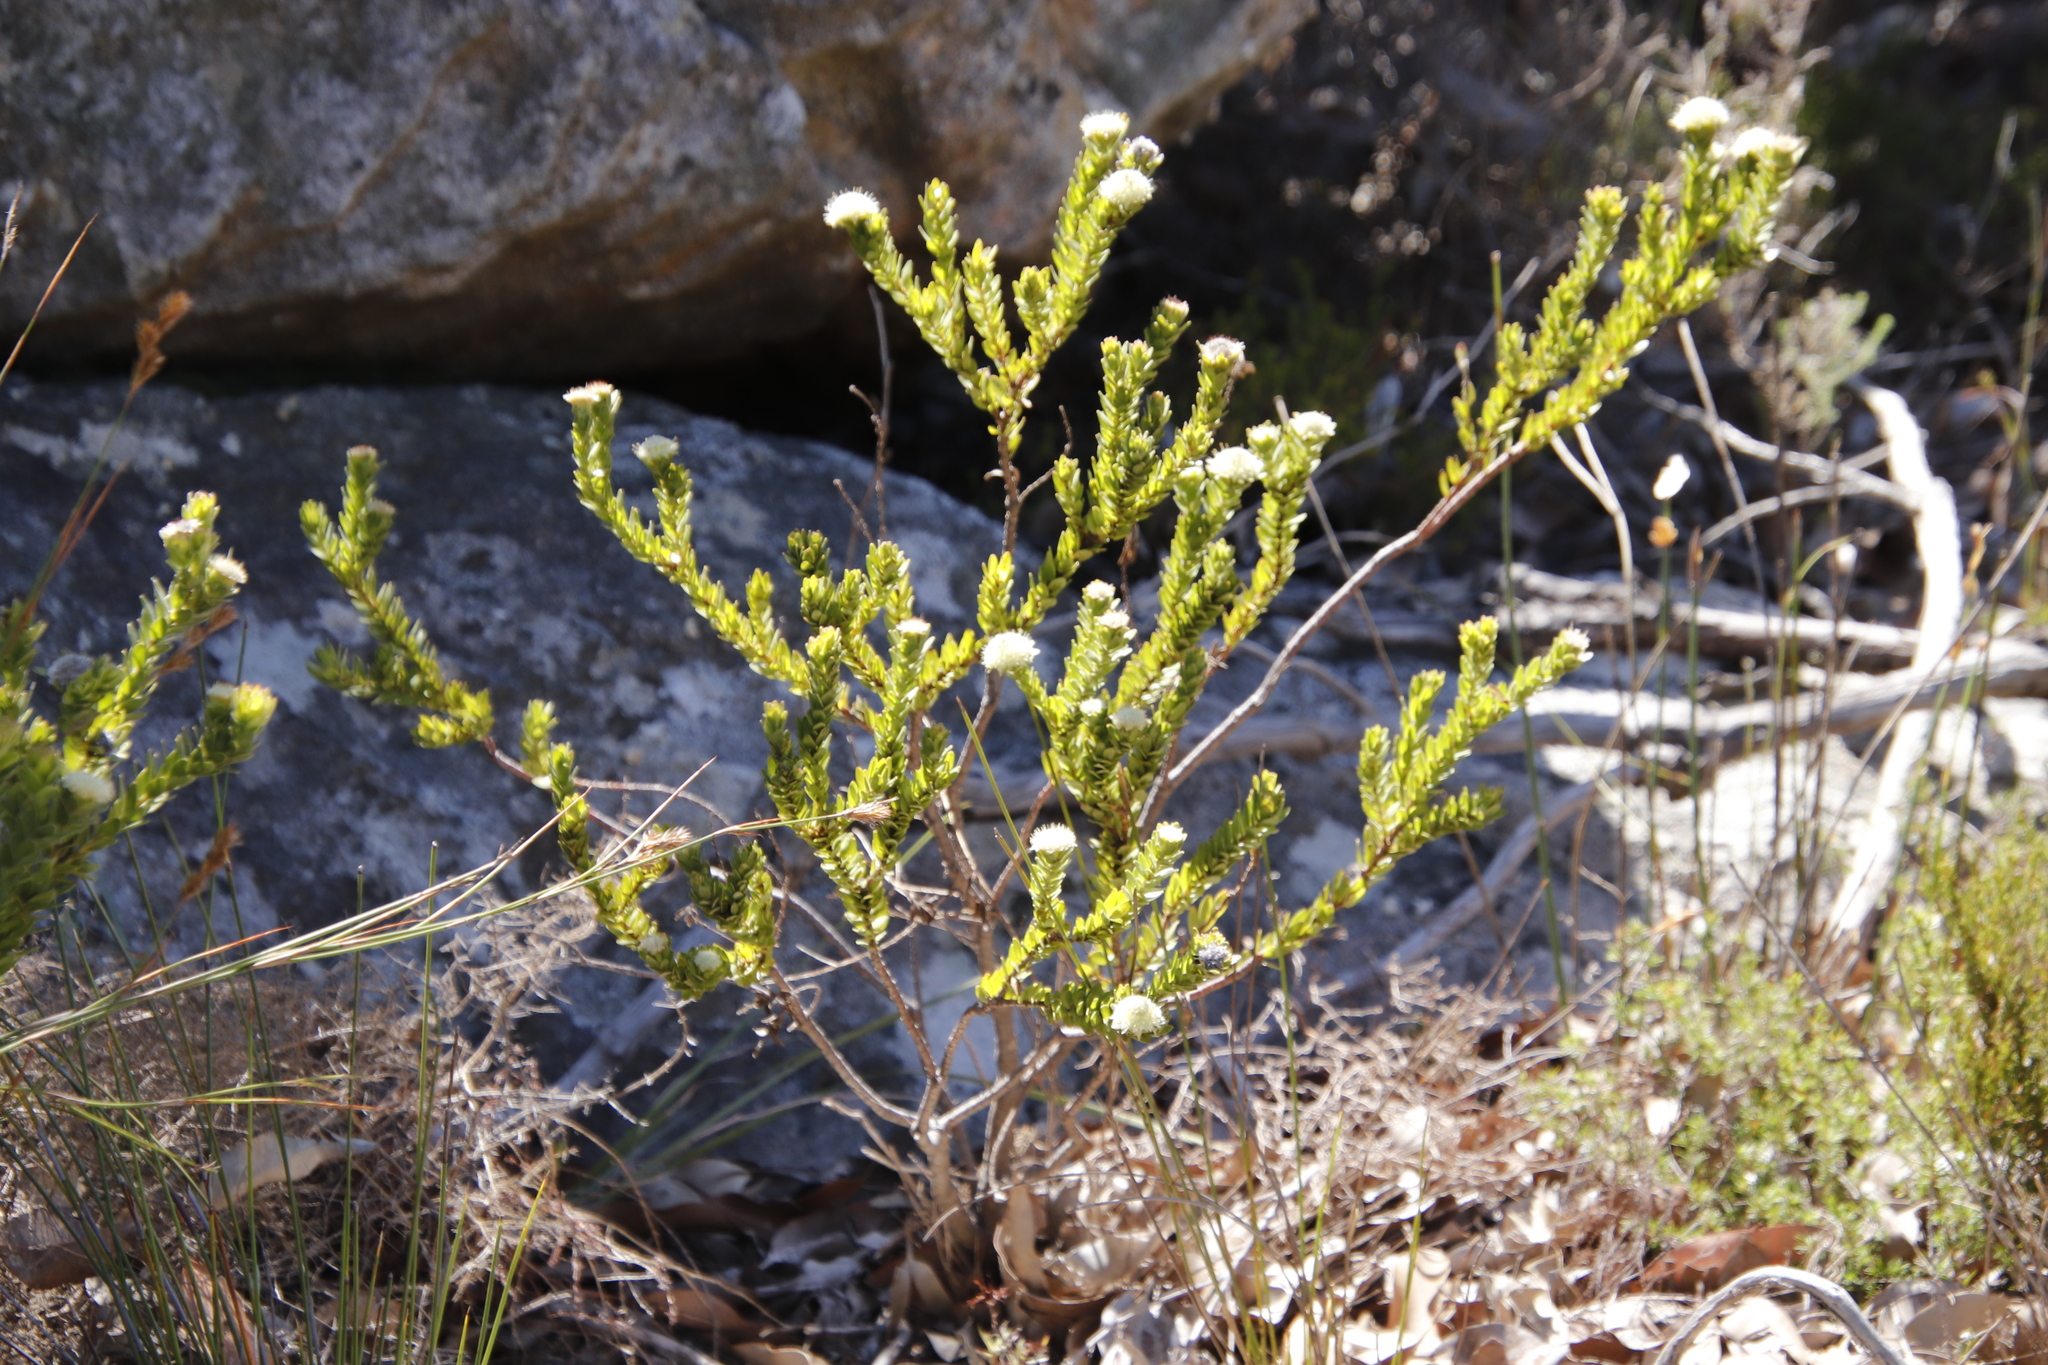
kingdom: Plantae
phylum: Tracheophyta
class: Magnoliopsida
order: Proteales
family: Proteaceae
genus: Diastella
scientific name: Diastella thymelaeoides
